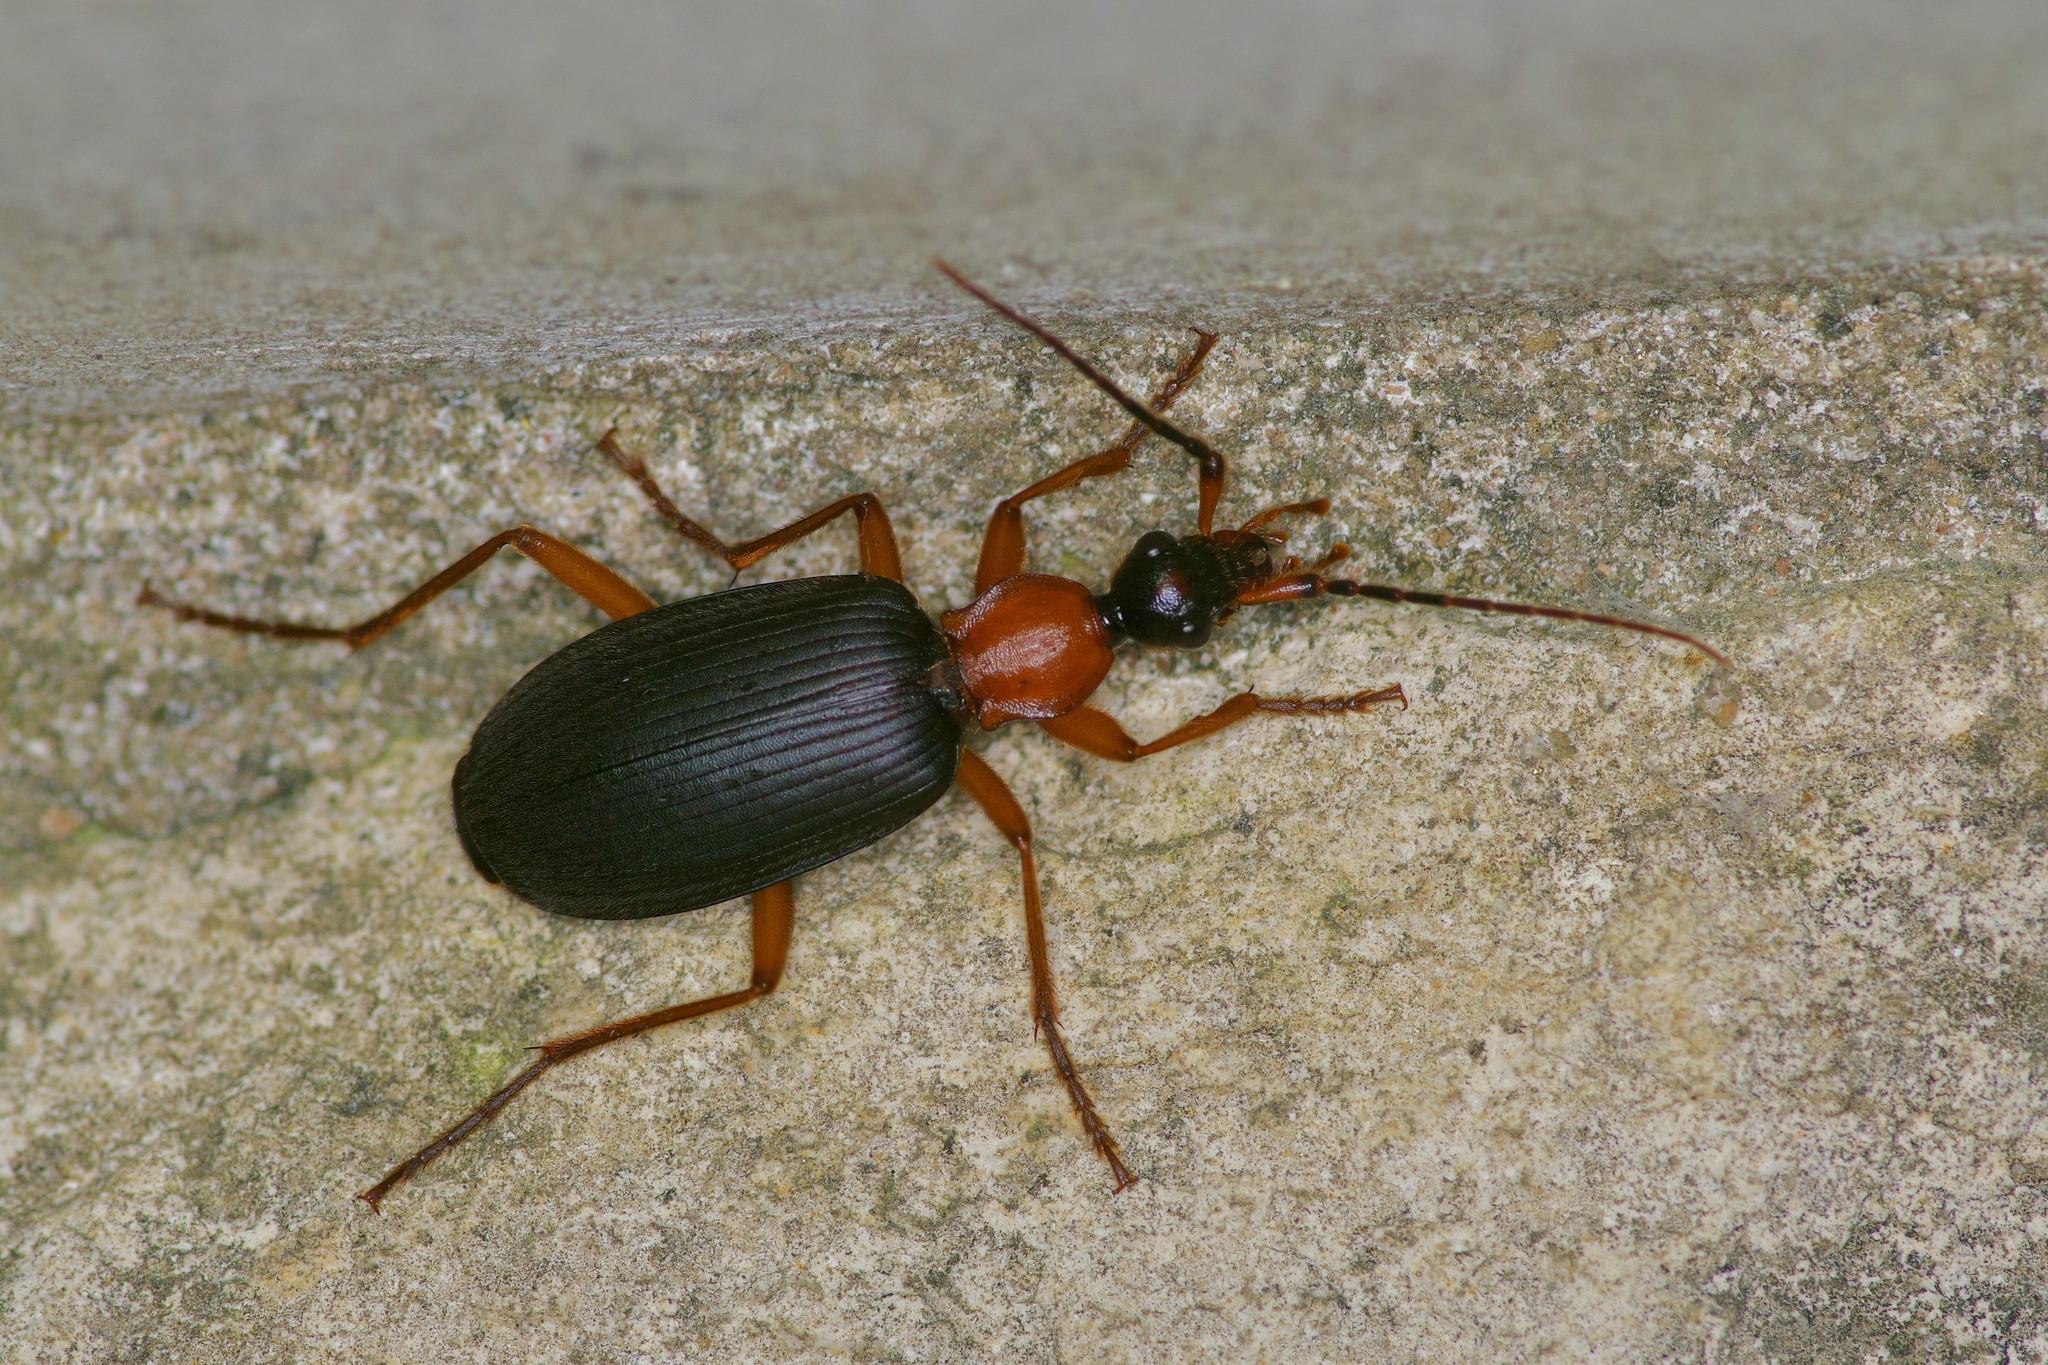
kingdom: Animalia
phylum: Arthropoda
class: Insecta
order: Coleoptera
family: Carabidae
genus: Galerita
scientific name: Galerita bicolor
